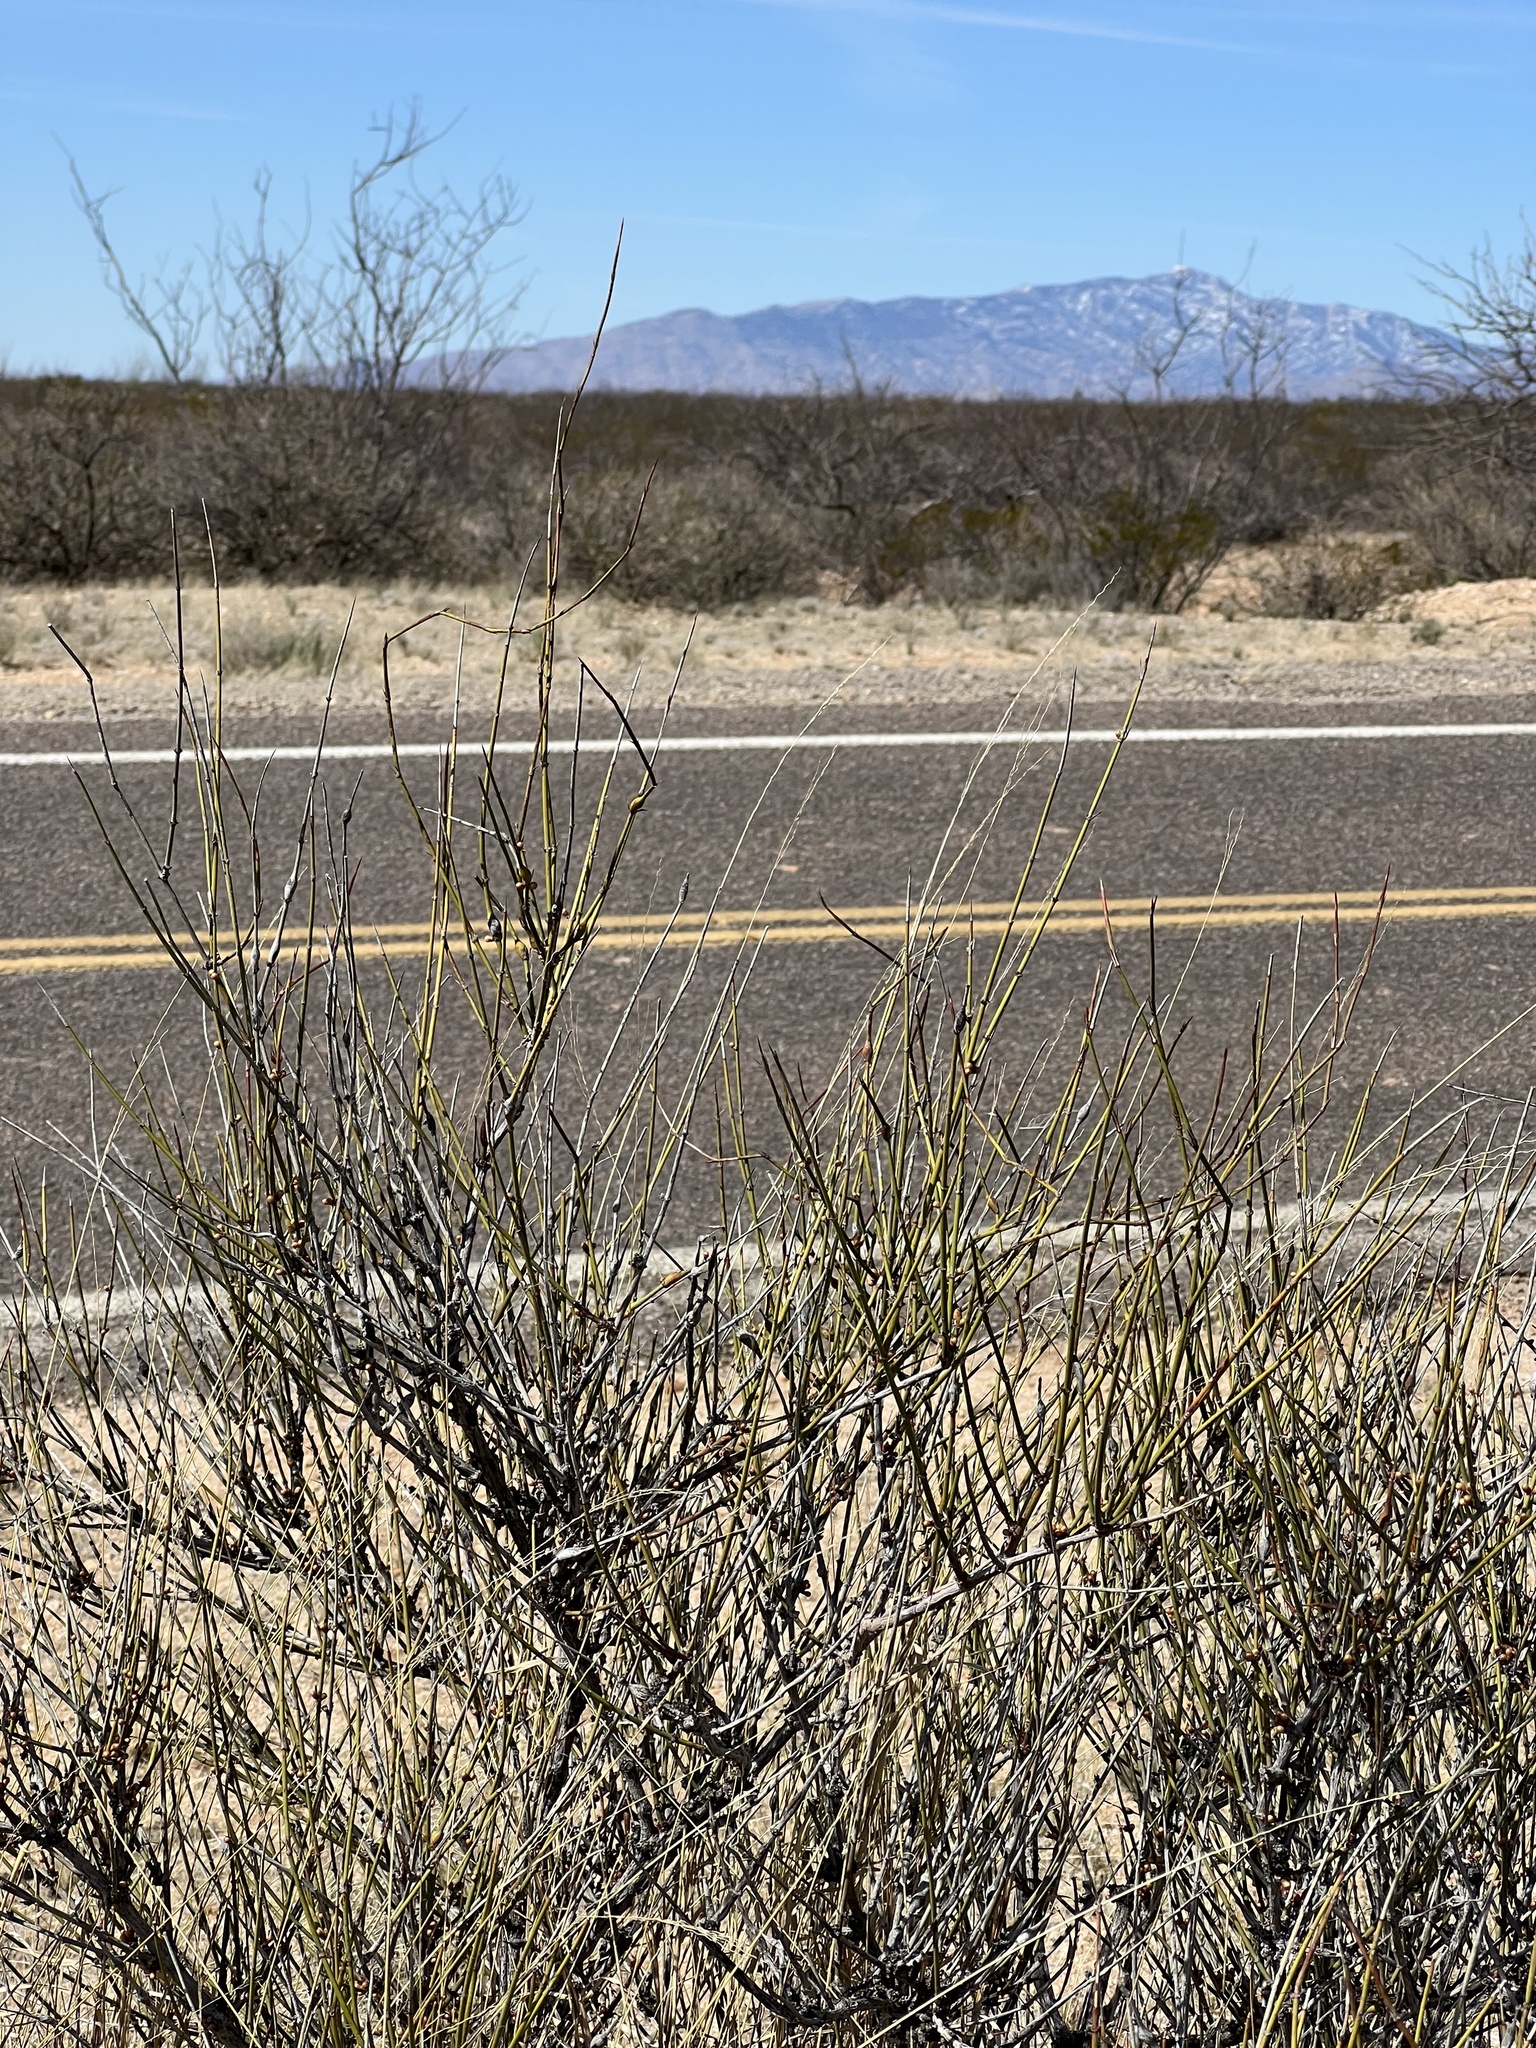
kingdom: Plantae
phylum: Tracheophyta
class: Gnetopsida
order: Ephedrales
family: Ephedraceae
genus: Ephedra
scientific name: Ephedra trifurca
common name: Mexican-tea
